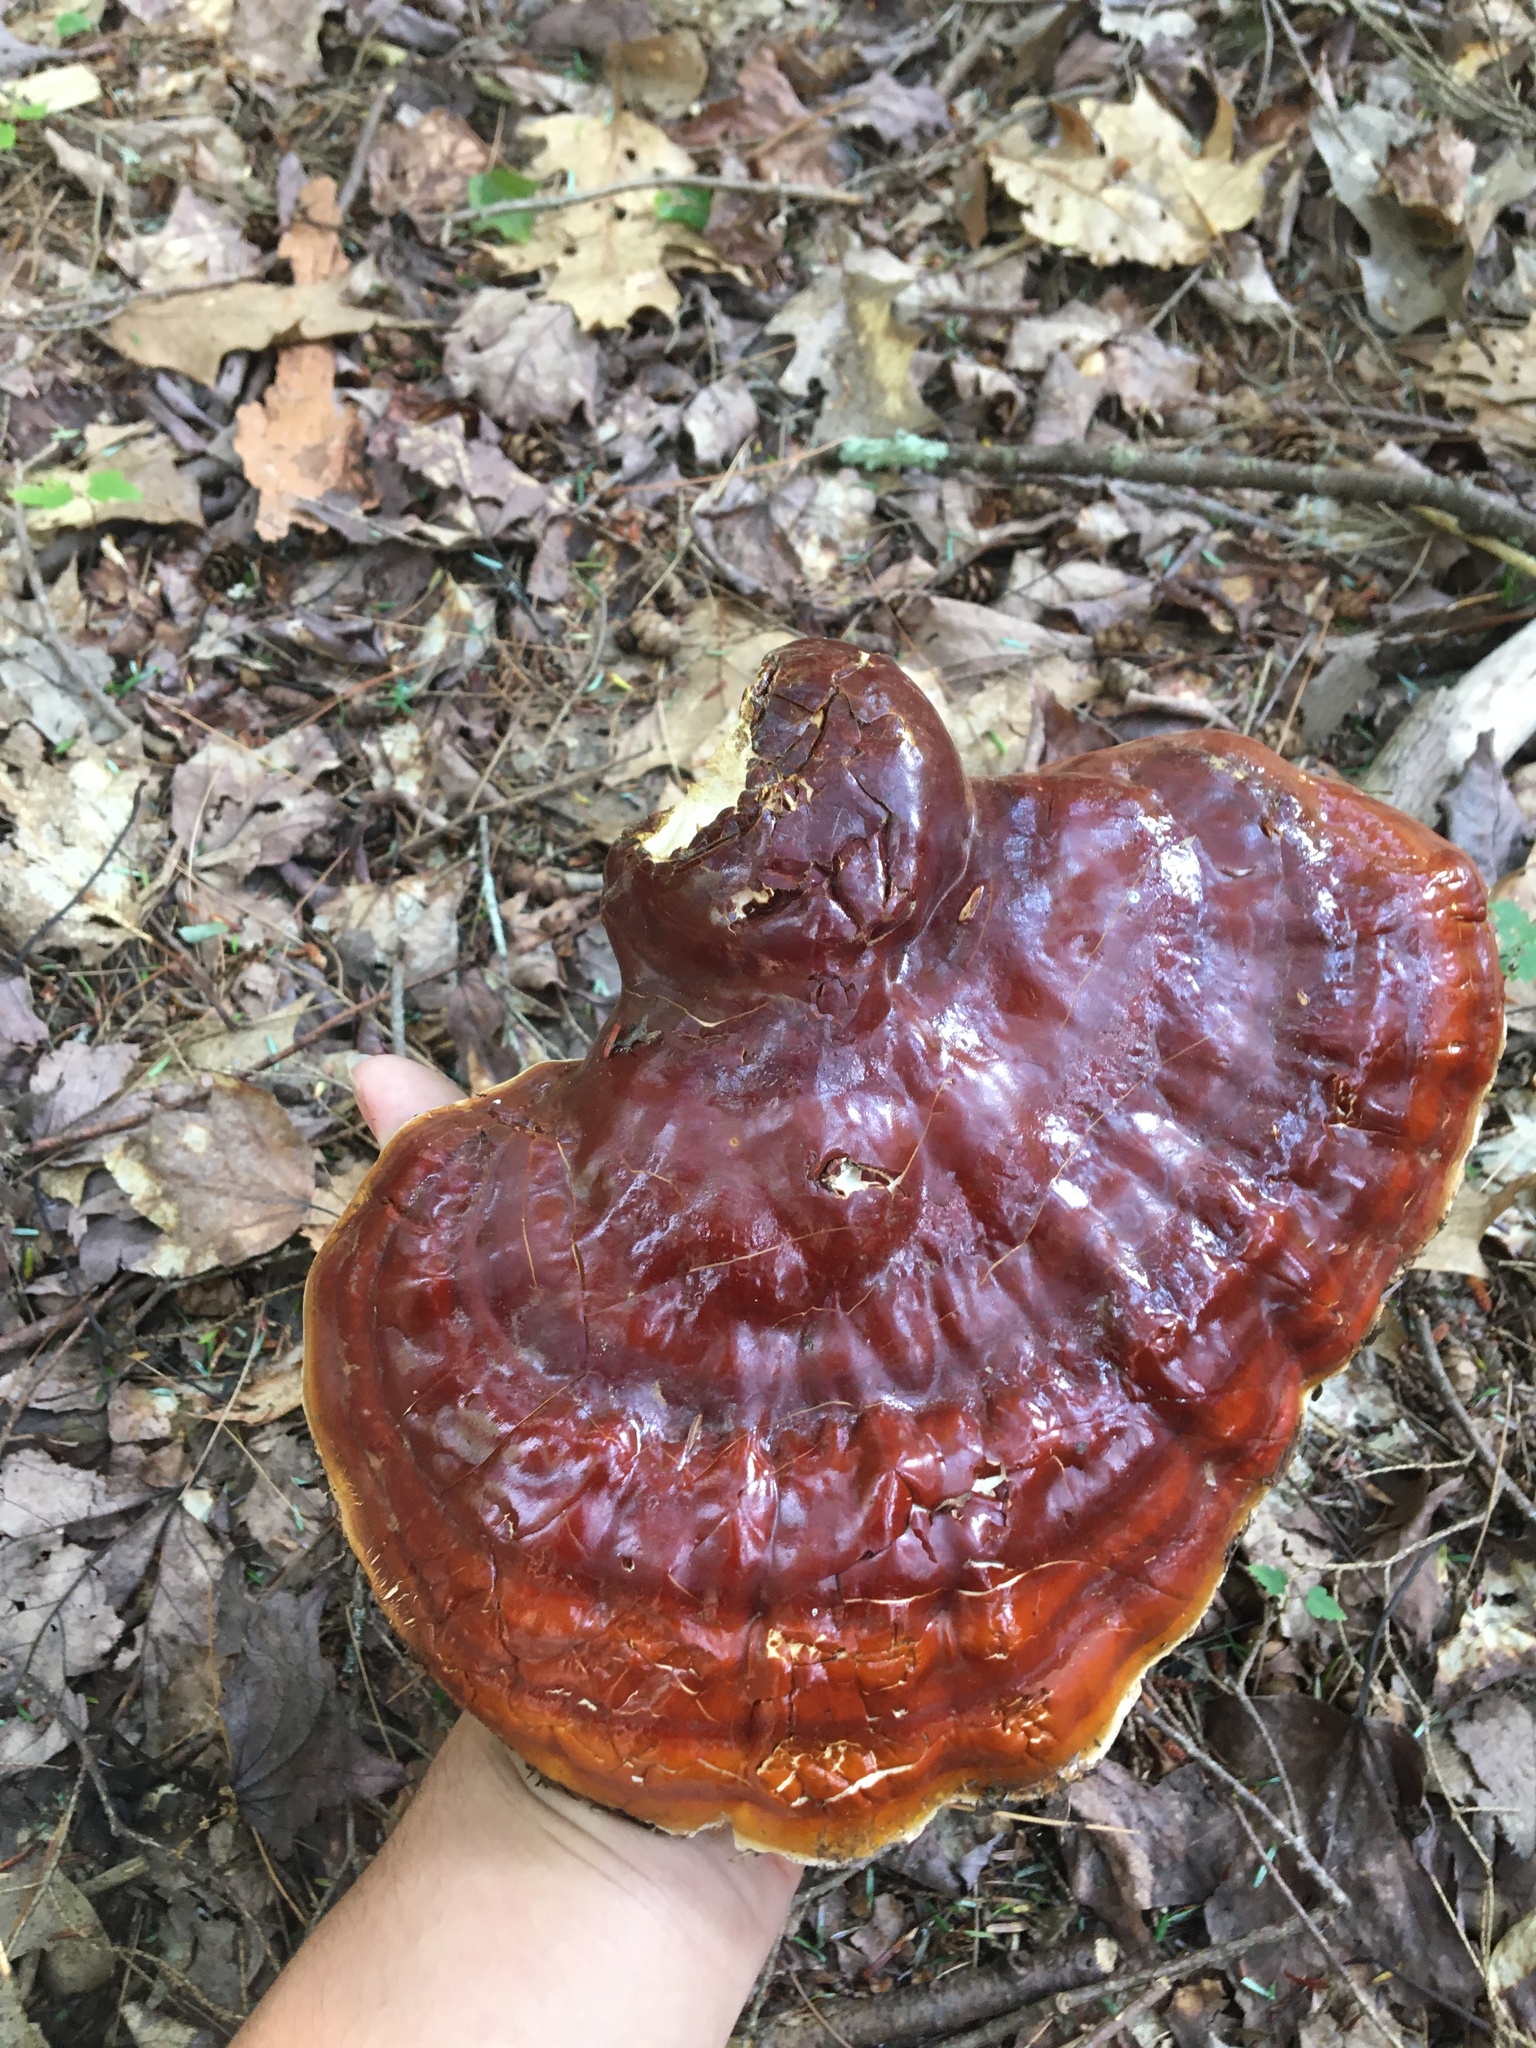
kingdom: Fungi
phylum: Basidiomycota
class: Agaricomycetes
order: Polyporales
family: Polyporaceae
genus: Ganoderma
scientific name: Ganoderma tsugae
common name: Hemlock varnish shelf
